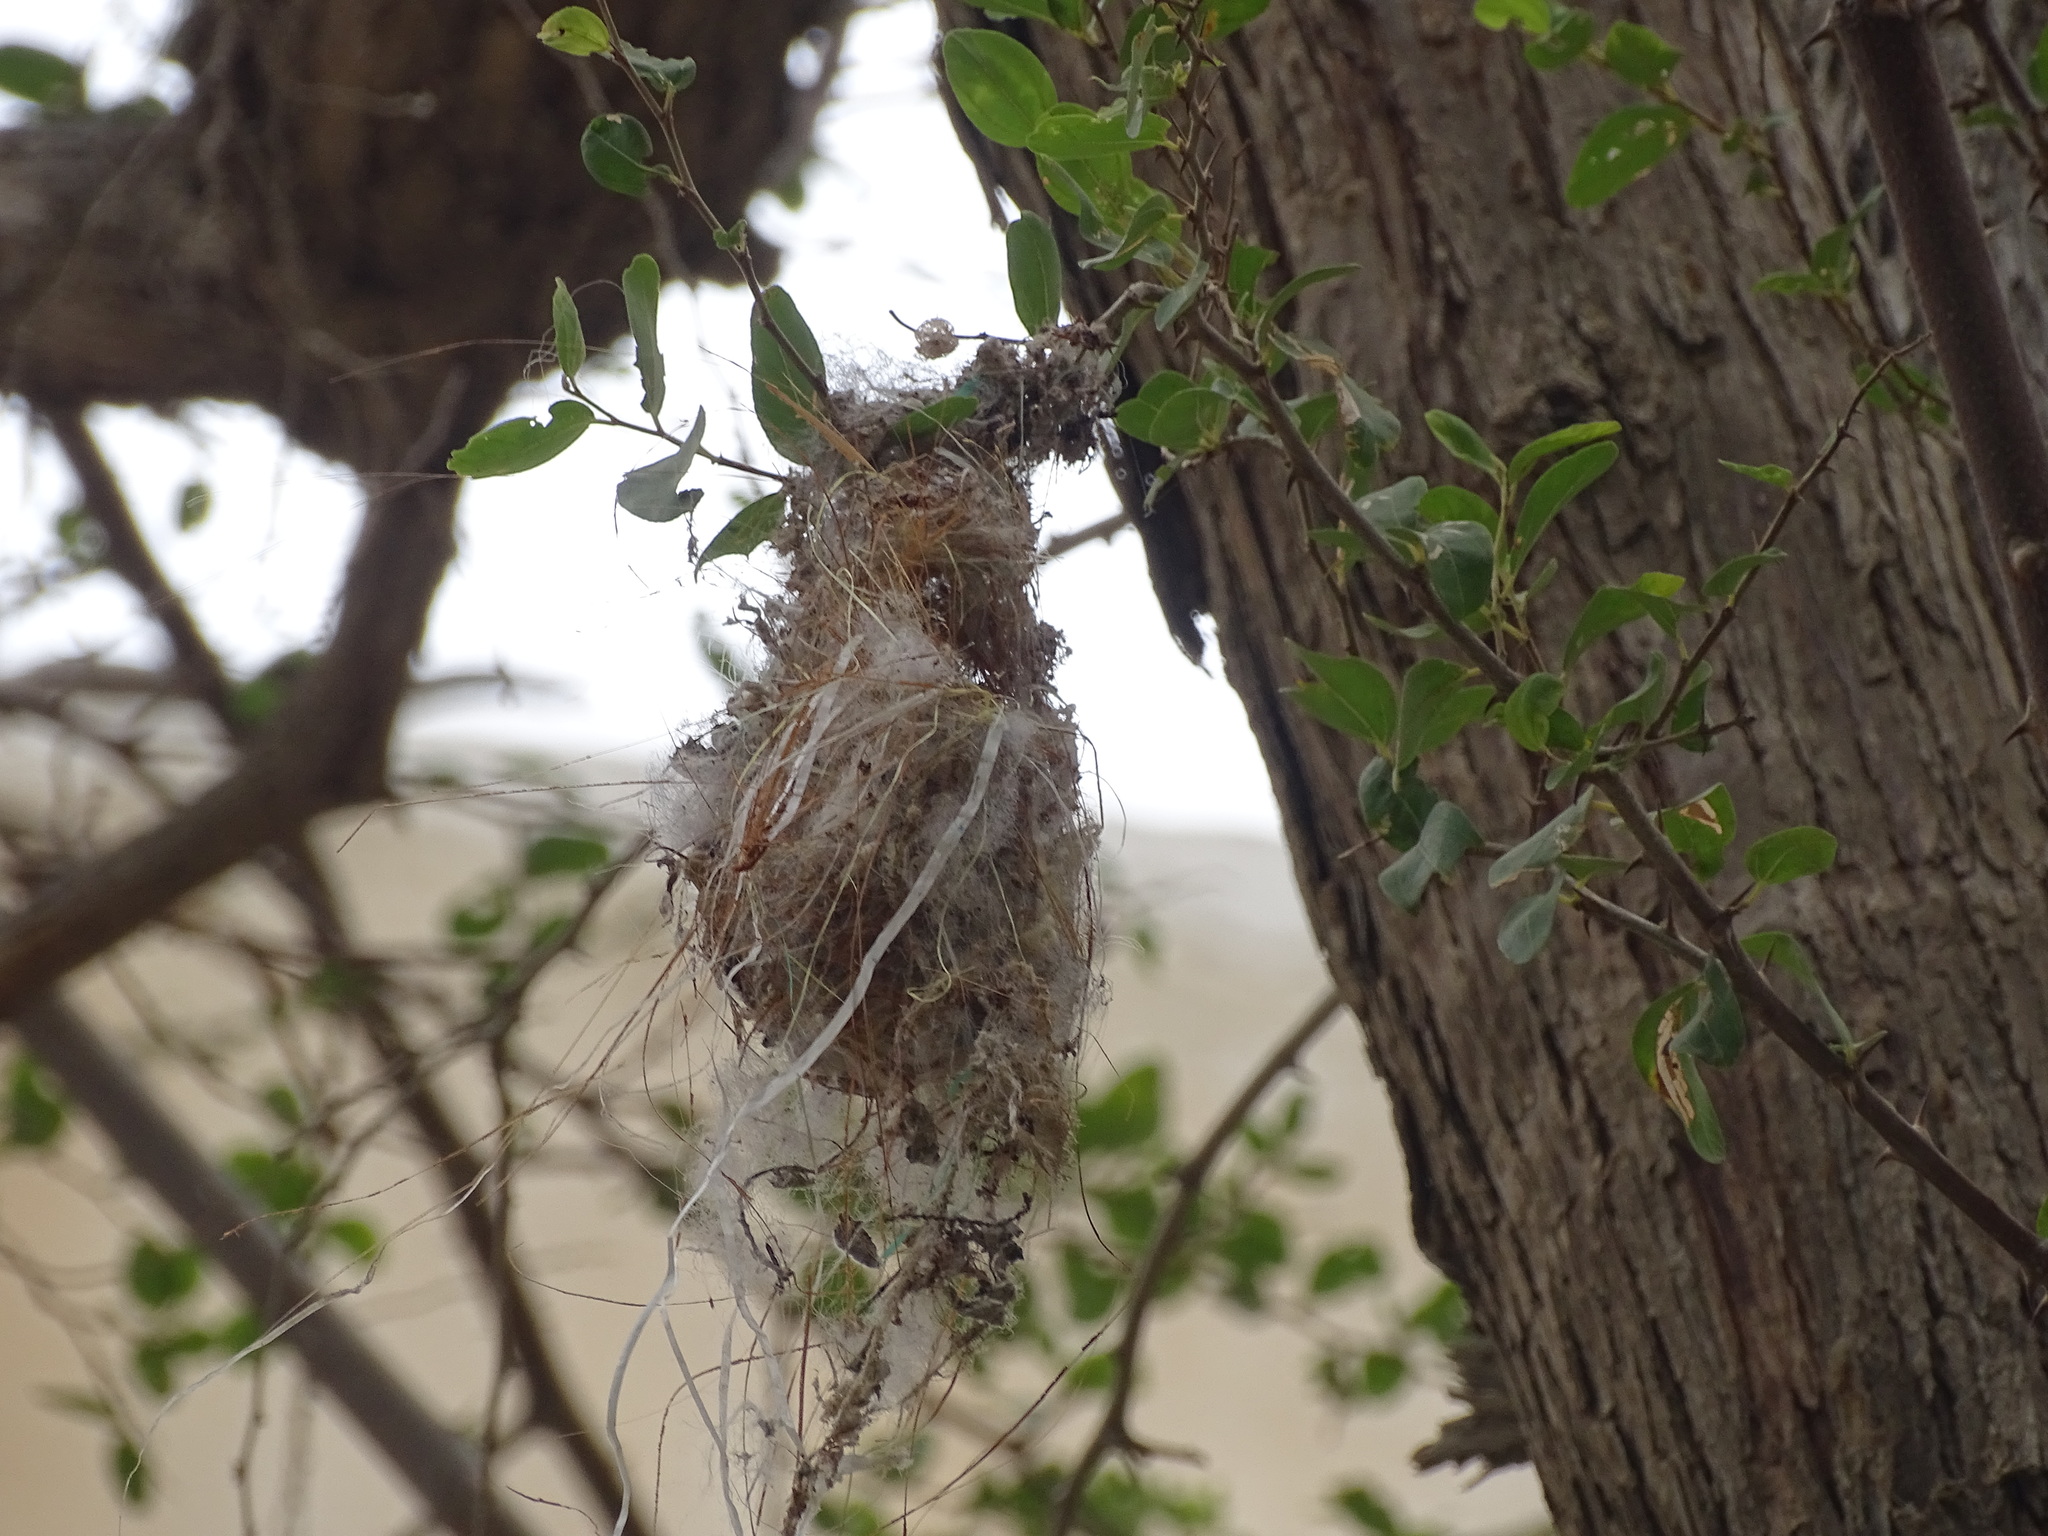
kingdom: Animalia
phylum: Chordata
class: Aves
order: Passeriformes
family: Nectariniidae
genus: Cinnyris
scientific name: Cinnyris asiaticus
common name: Purple sunbird
